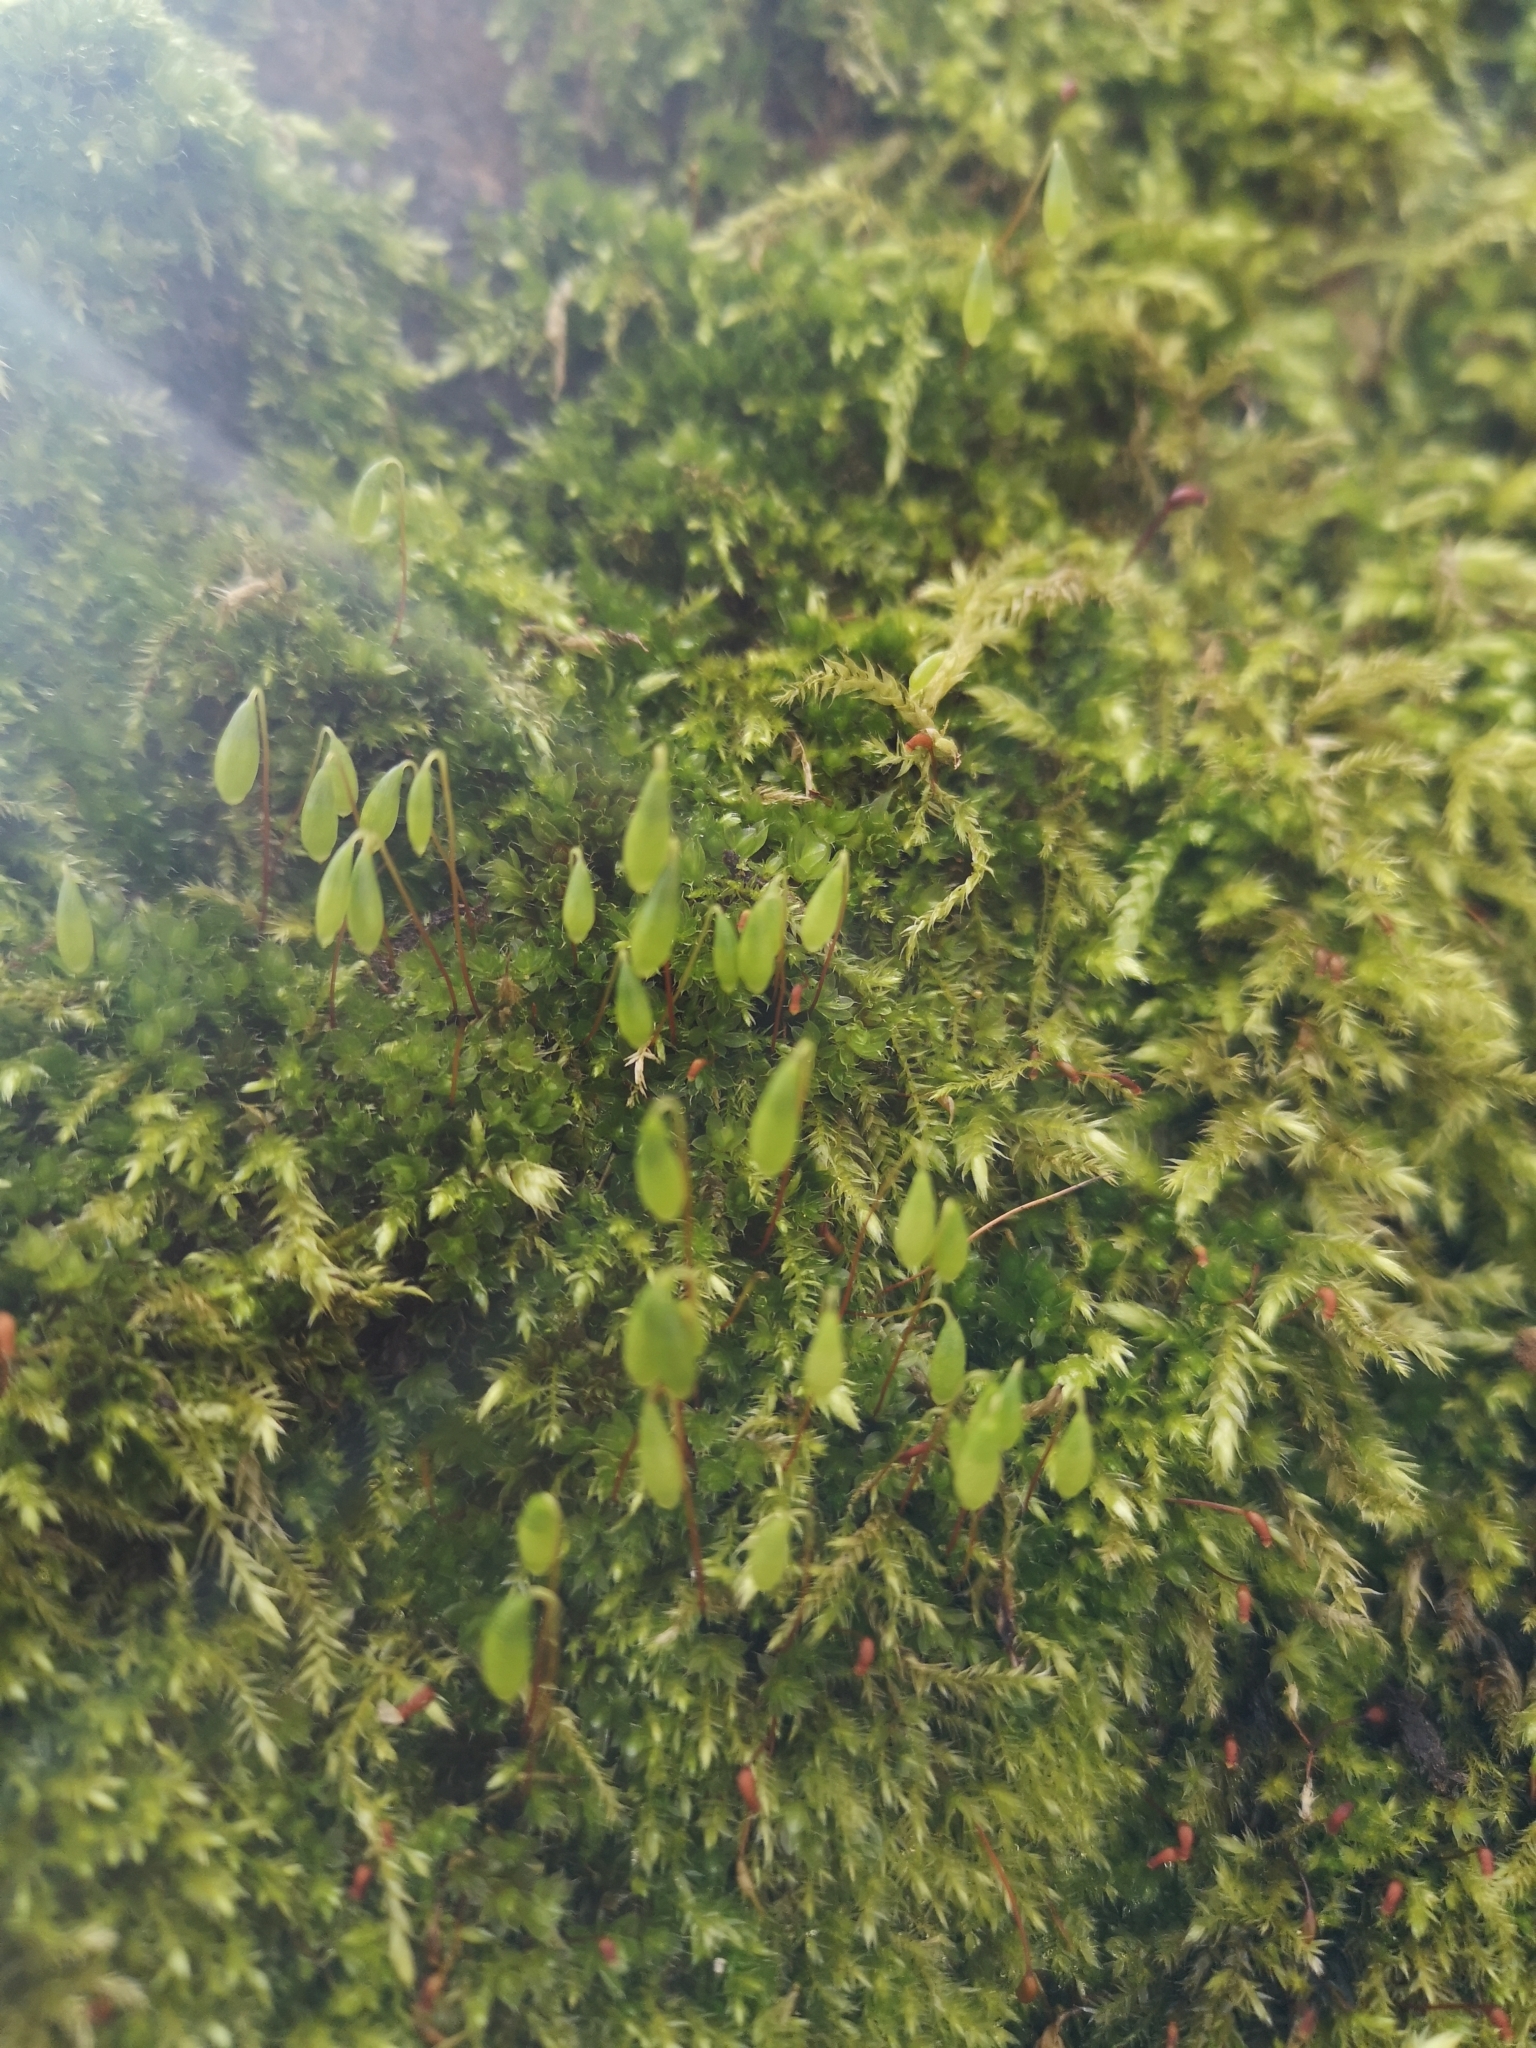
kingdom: Plantae
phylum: Bryophyta
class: Bryopsida
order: Bryales
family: Mniaceae
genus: Pohlia
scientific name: Pohlia nutans
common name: Nodding thread-moss
